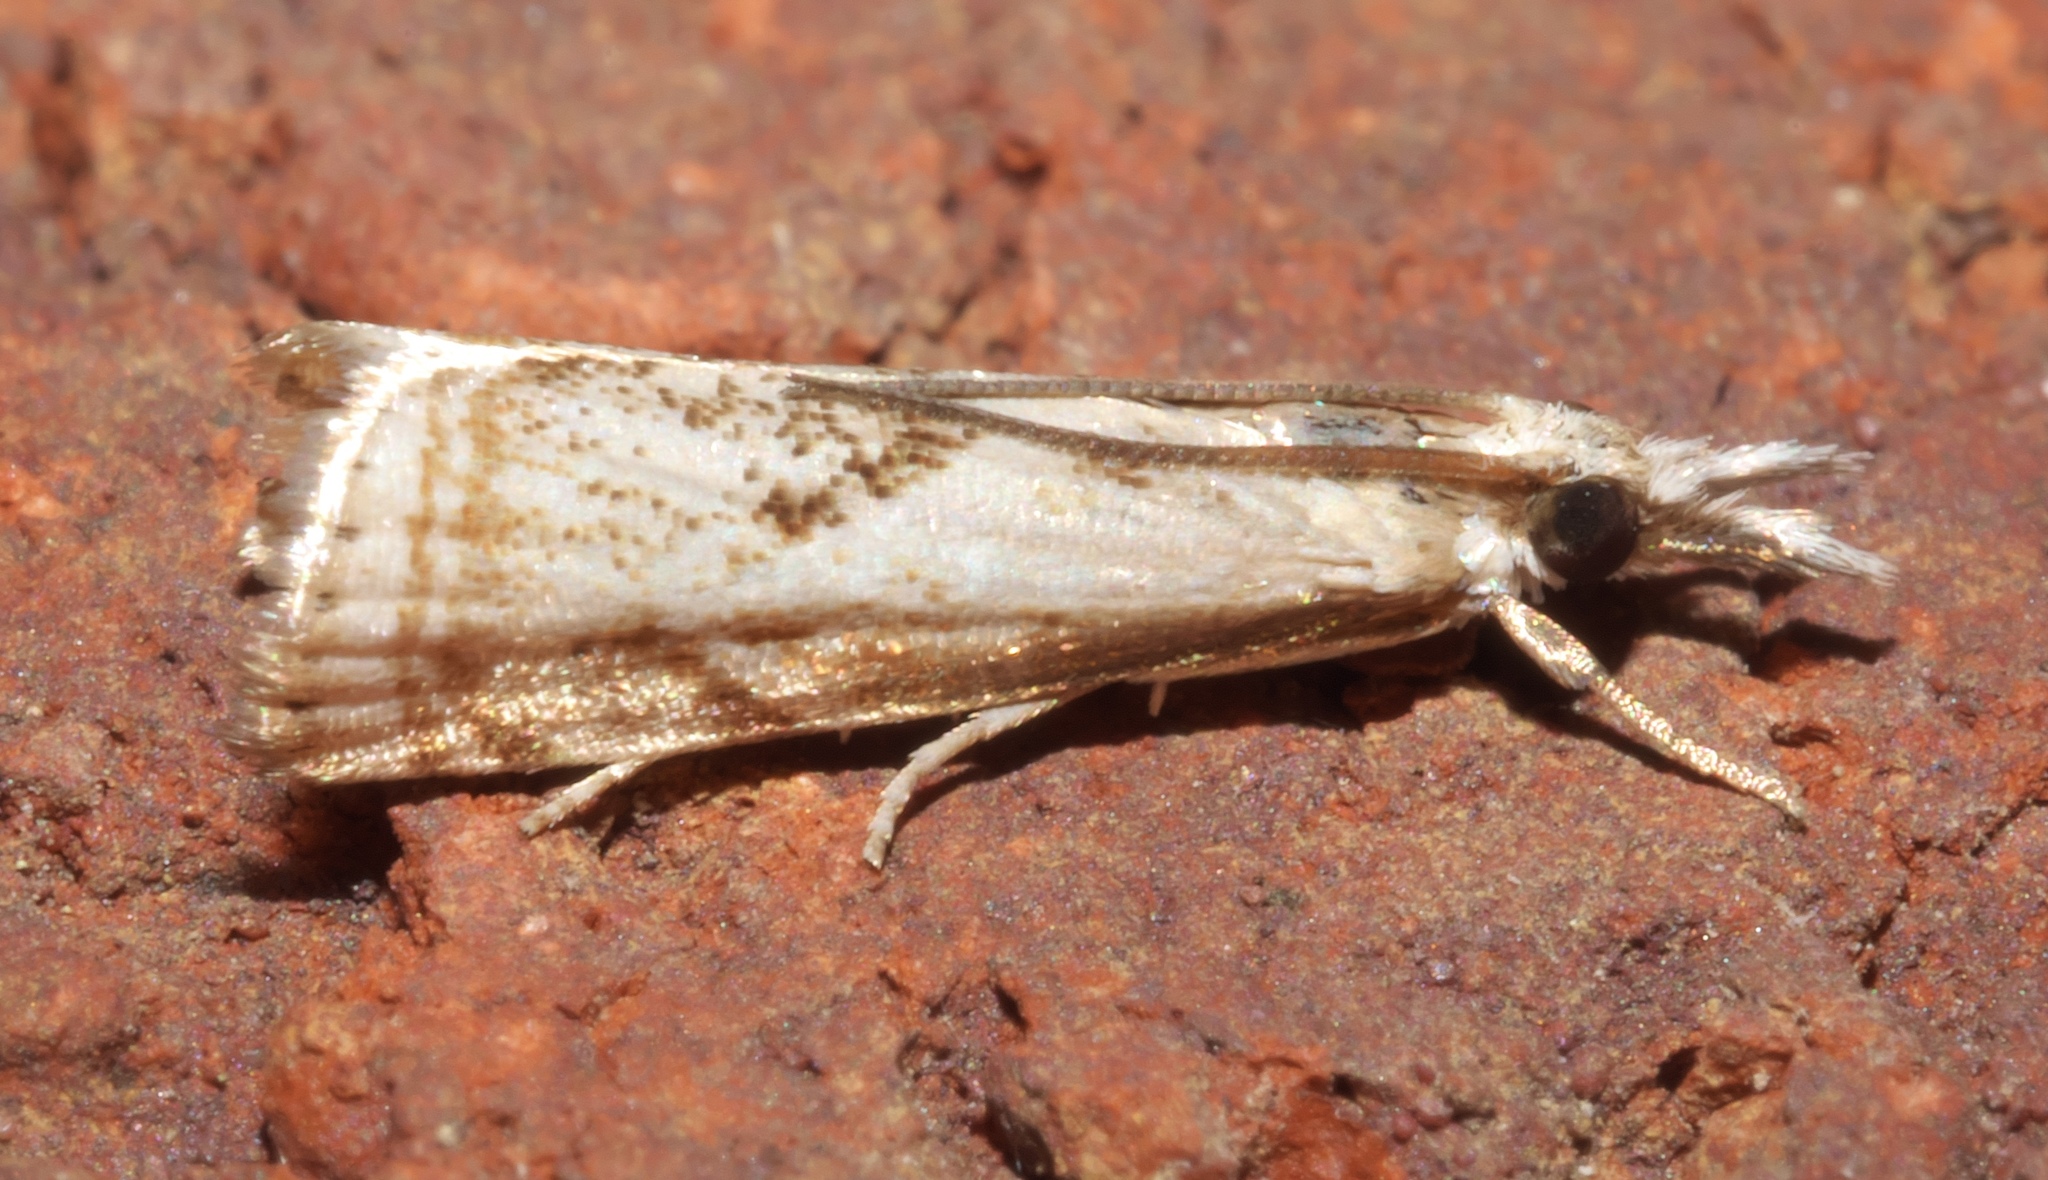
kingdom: Animalia
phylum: Arthropoda
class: Insecta
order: Lepidoptera
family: Crambidae
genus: Microcrambus
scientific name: Microcrambus elegans
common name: Elegant grass-veneer
